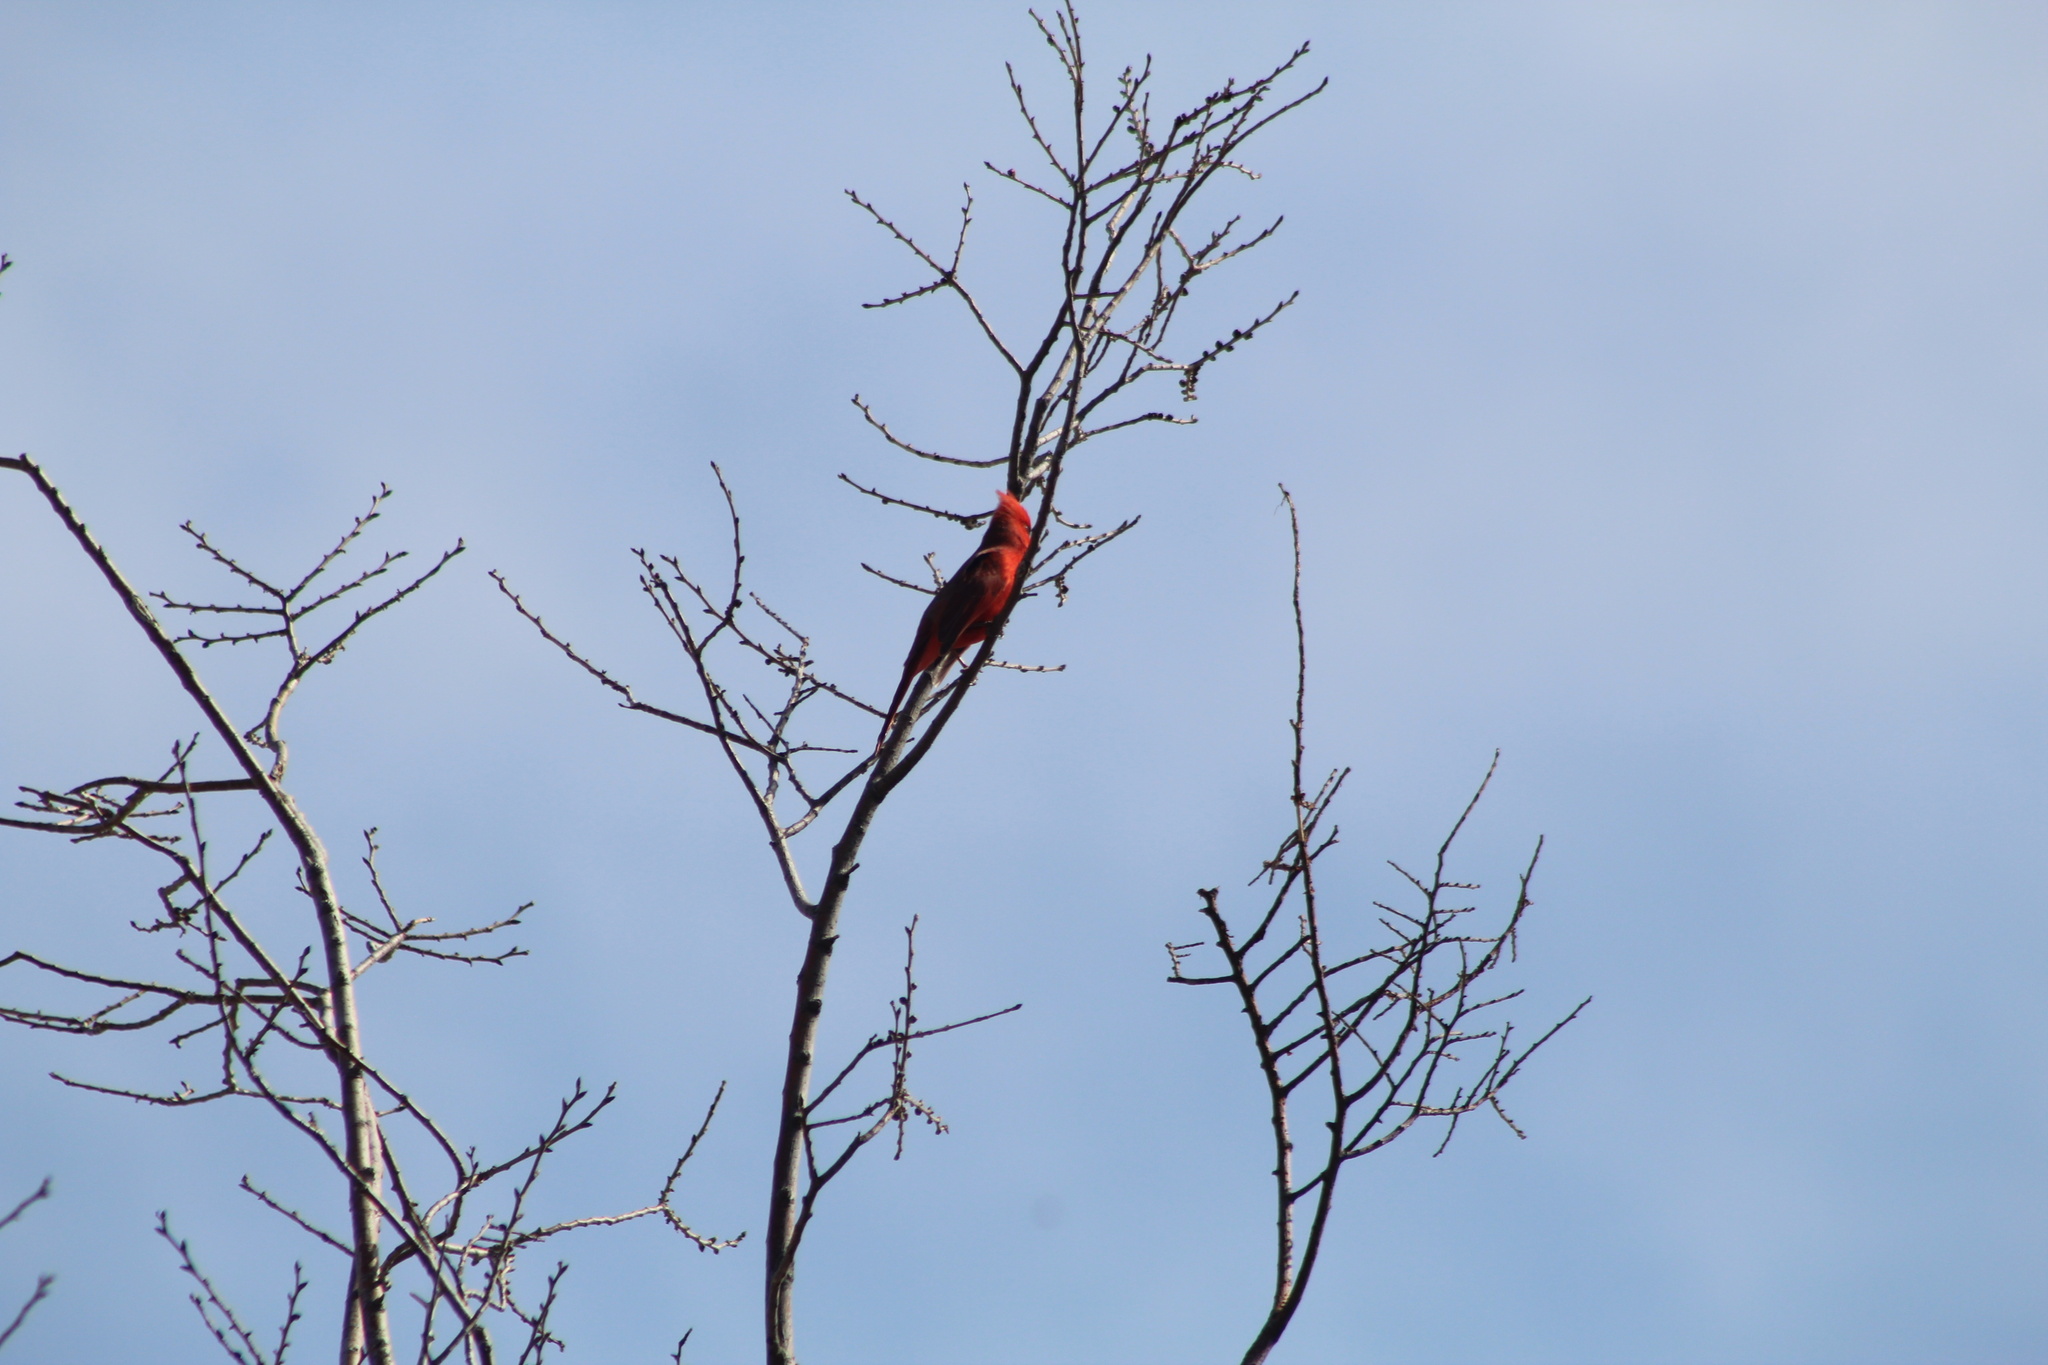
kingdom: Animalia
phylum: Chordata
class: Aves
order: Passeriformes
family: Cardinalidae
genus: Cardinalis
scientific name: Cardinalis cardinalis
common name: Northern cardinal
